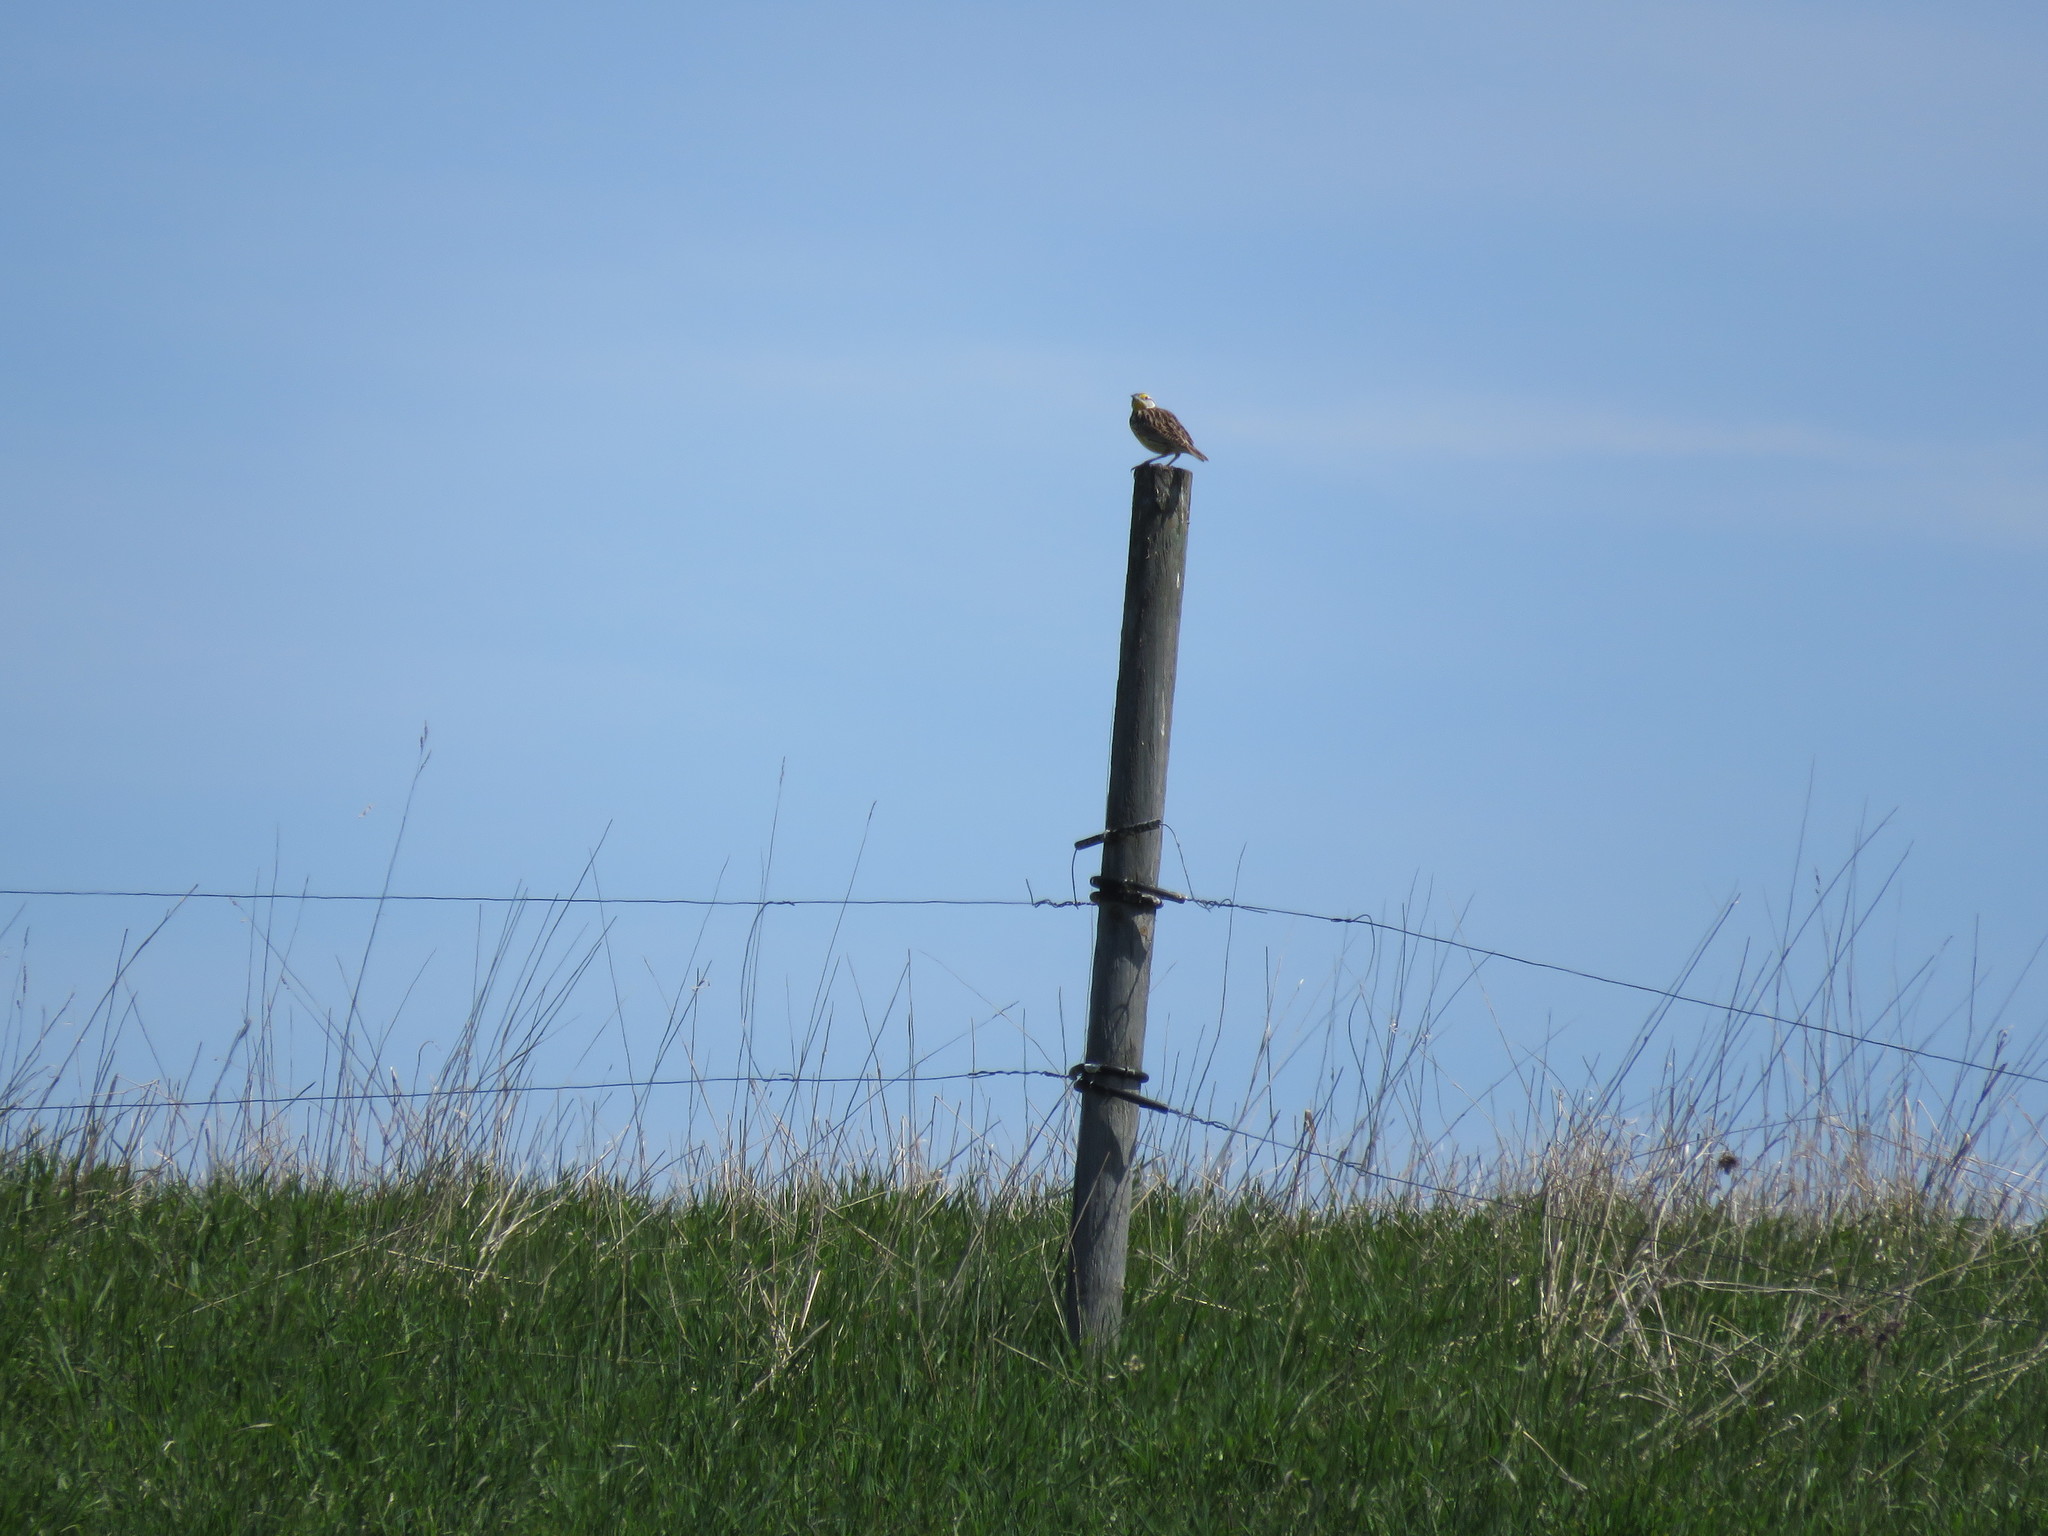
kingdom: Animalia
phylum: Chordata
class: Aves
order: Passeriformes
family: Icteridae
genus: Sturnella
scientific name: Sturnella magna
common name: Eastern meadowlark
